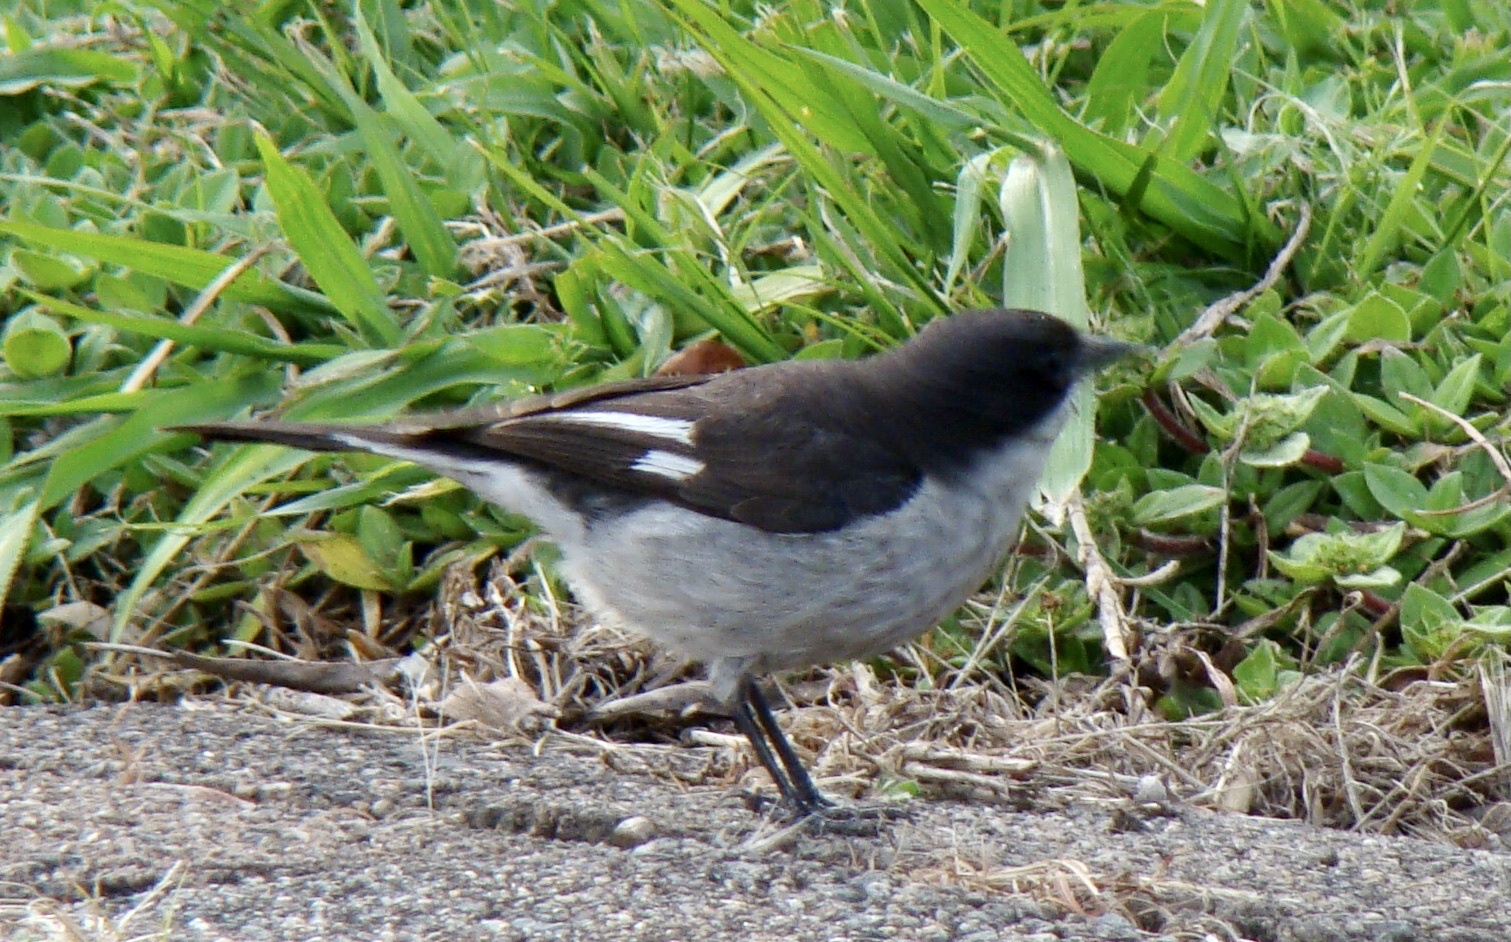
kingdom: Animalia
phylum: Chordata
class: Aves
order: Passeriformes
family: Muscicapidae
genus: Sigelus
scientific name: Sigelus silens
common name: Fiscal flycatcher
